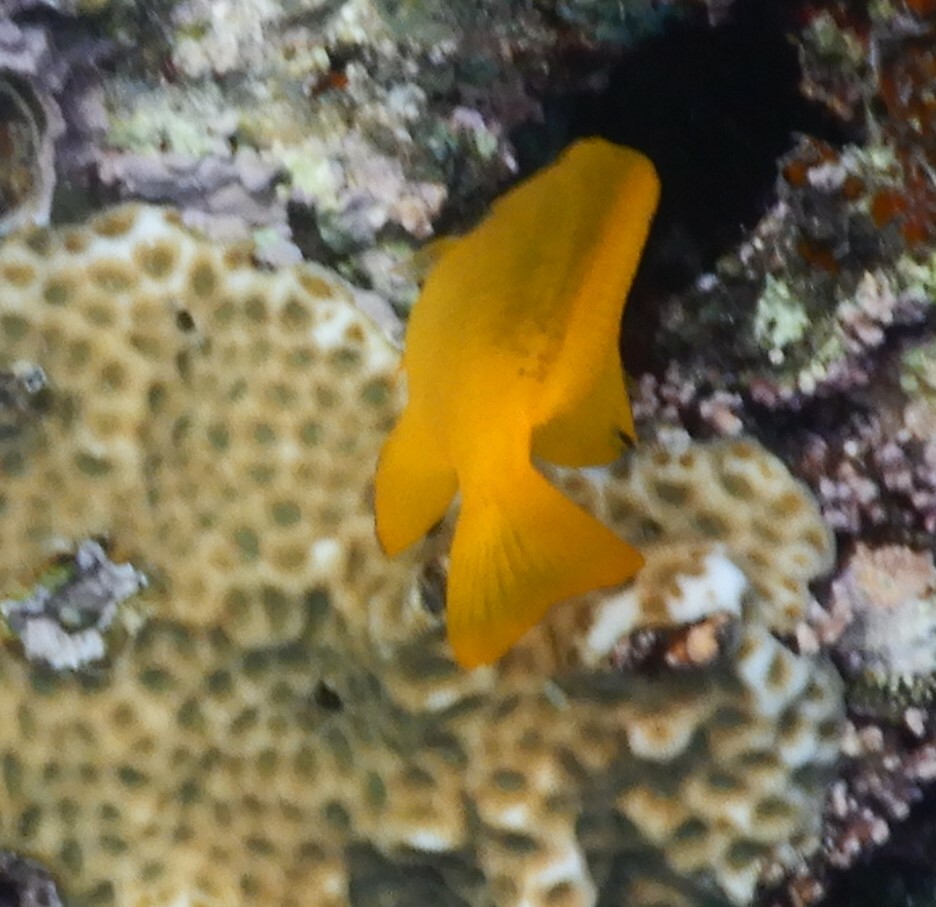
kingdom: Animalia
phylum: Chordata
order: Perciformes
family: Pomacentridae
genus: Pomacentrus
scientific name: Pomacentrus sulfureus
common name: Sulfur damsel
